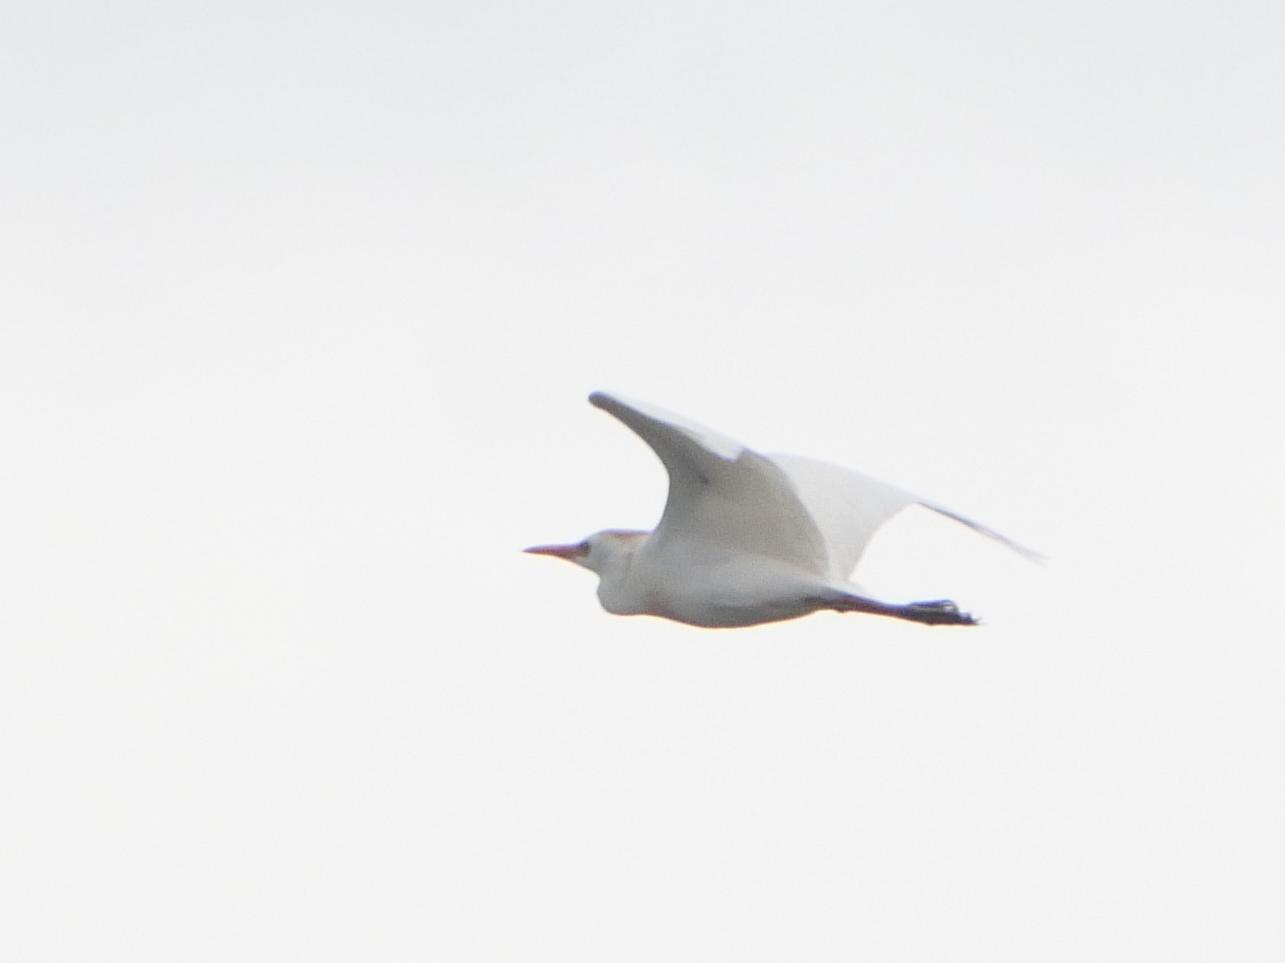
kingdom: Animalia
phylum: Chordata
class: Aves
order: Pelecaniformes
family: Ardeidae
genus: Bubulcus
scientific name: Bubulcus ibis
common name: Cattle egret
